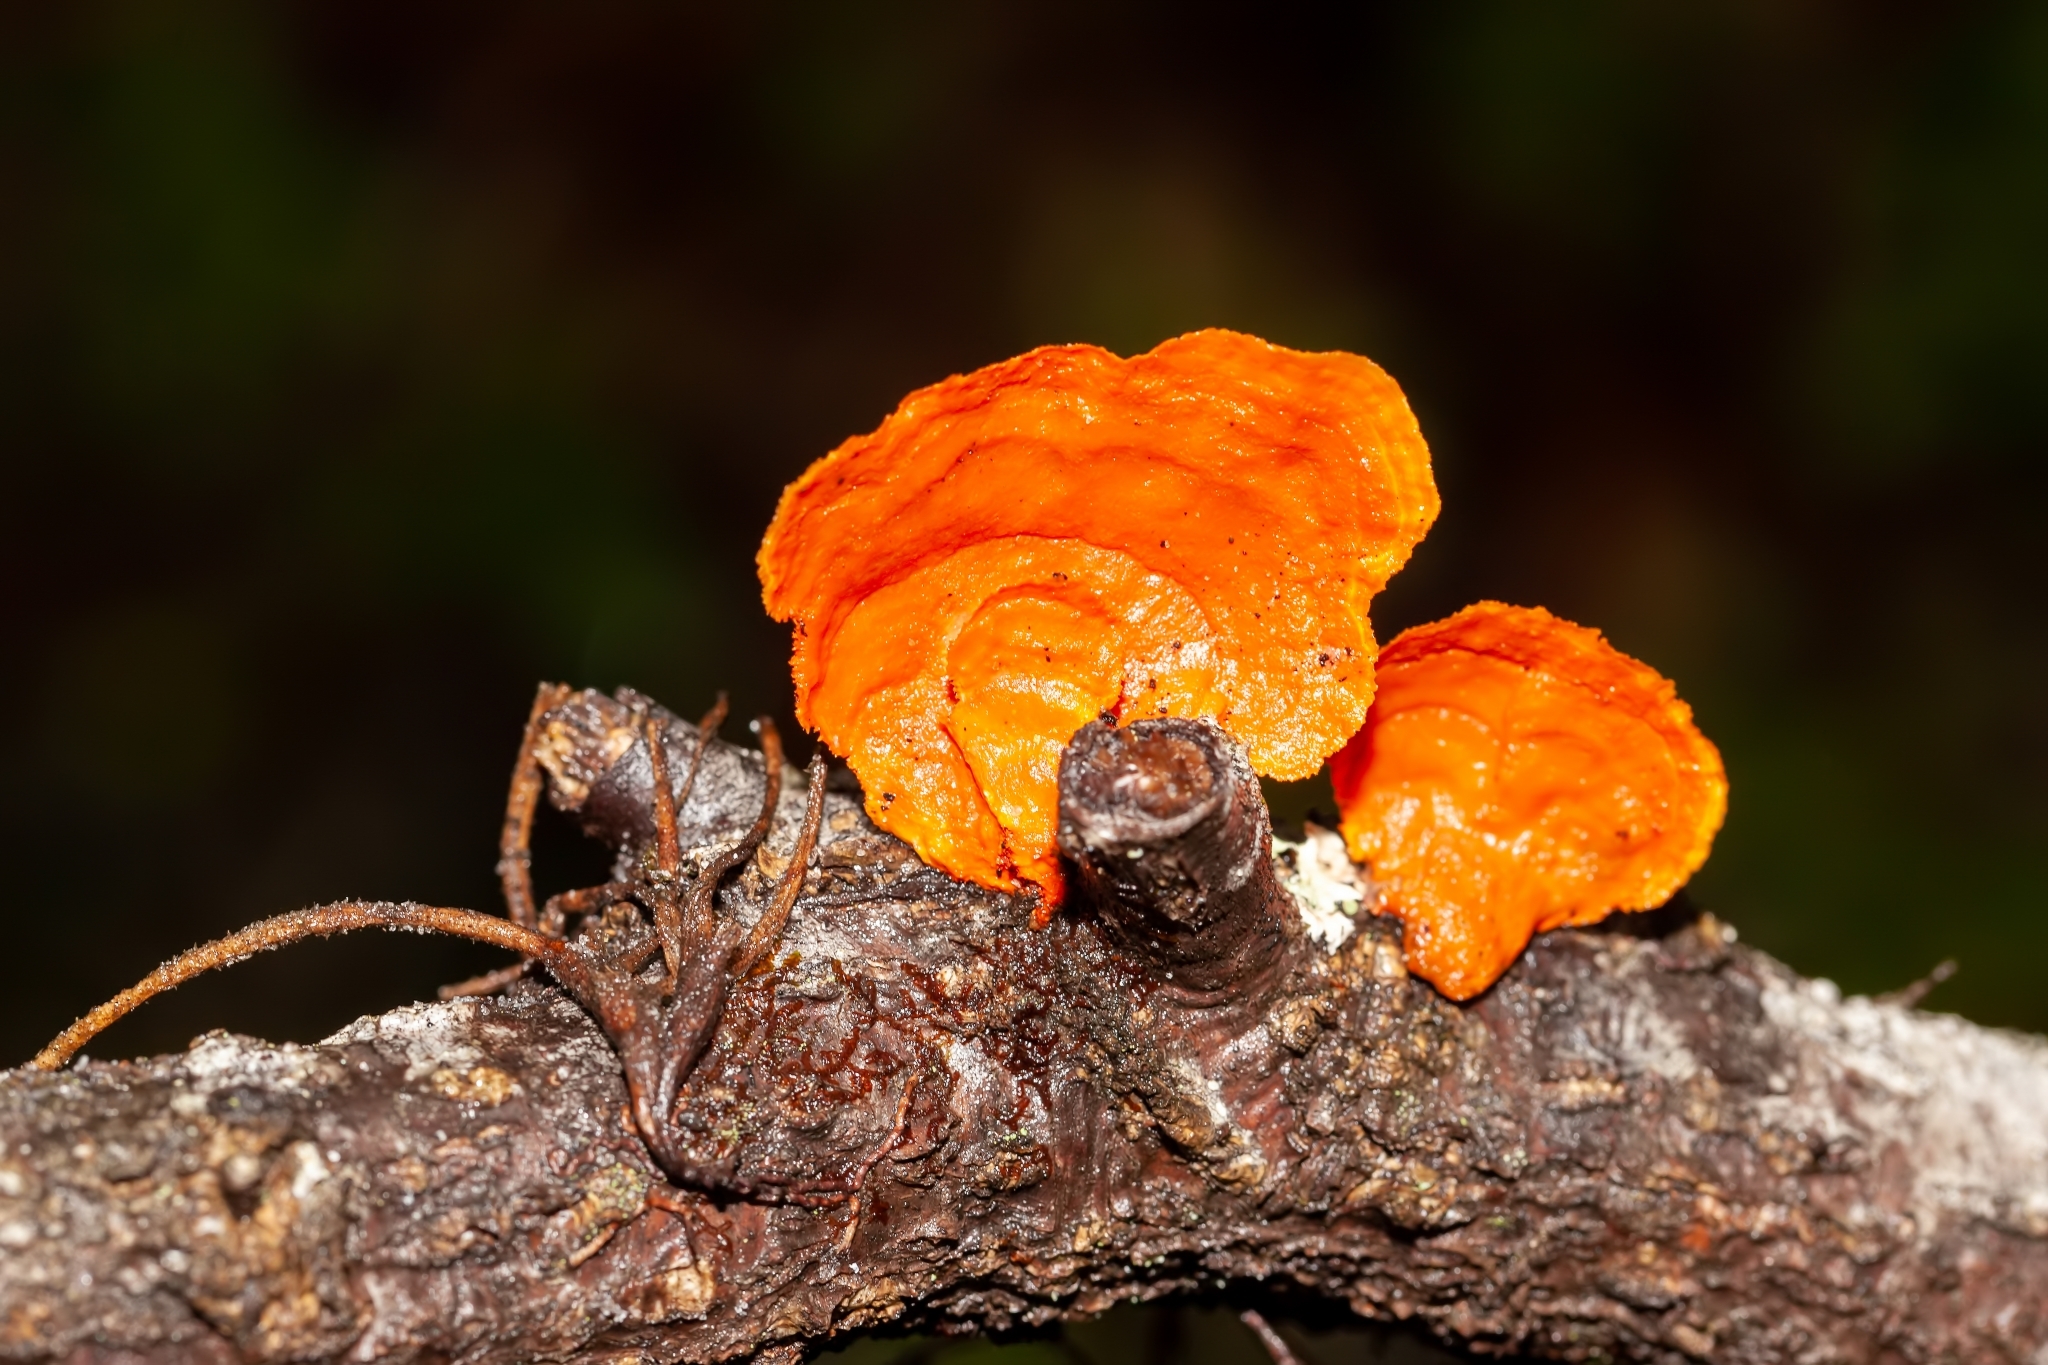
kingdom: Fungi
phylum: Basidiomycota
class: Agaricomycetes
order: Polyporales
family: Polyporaceae
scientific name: Polyporaceae
